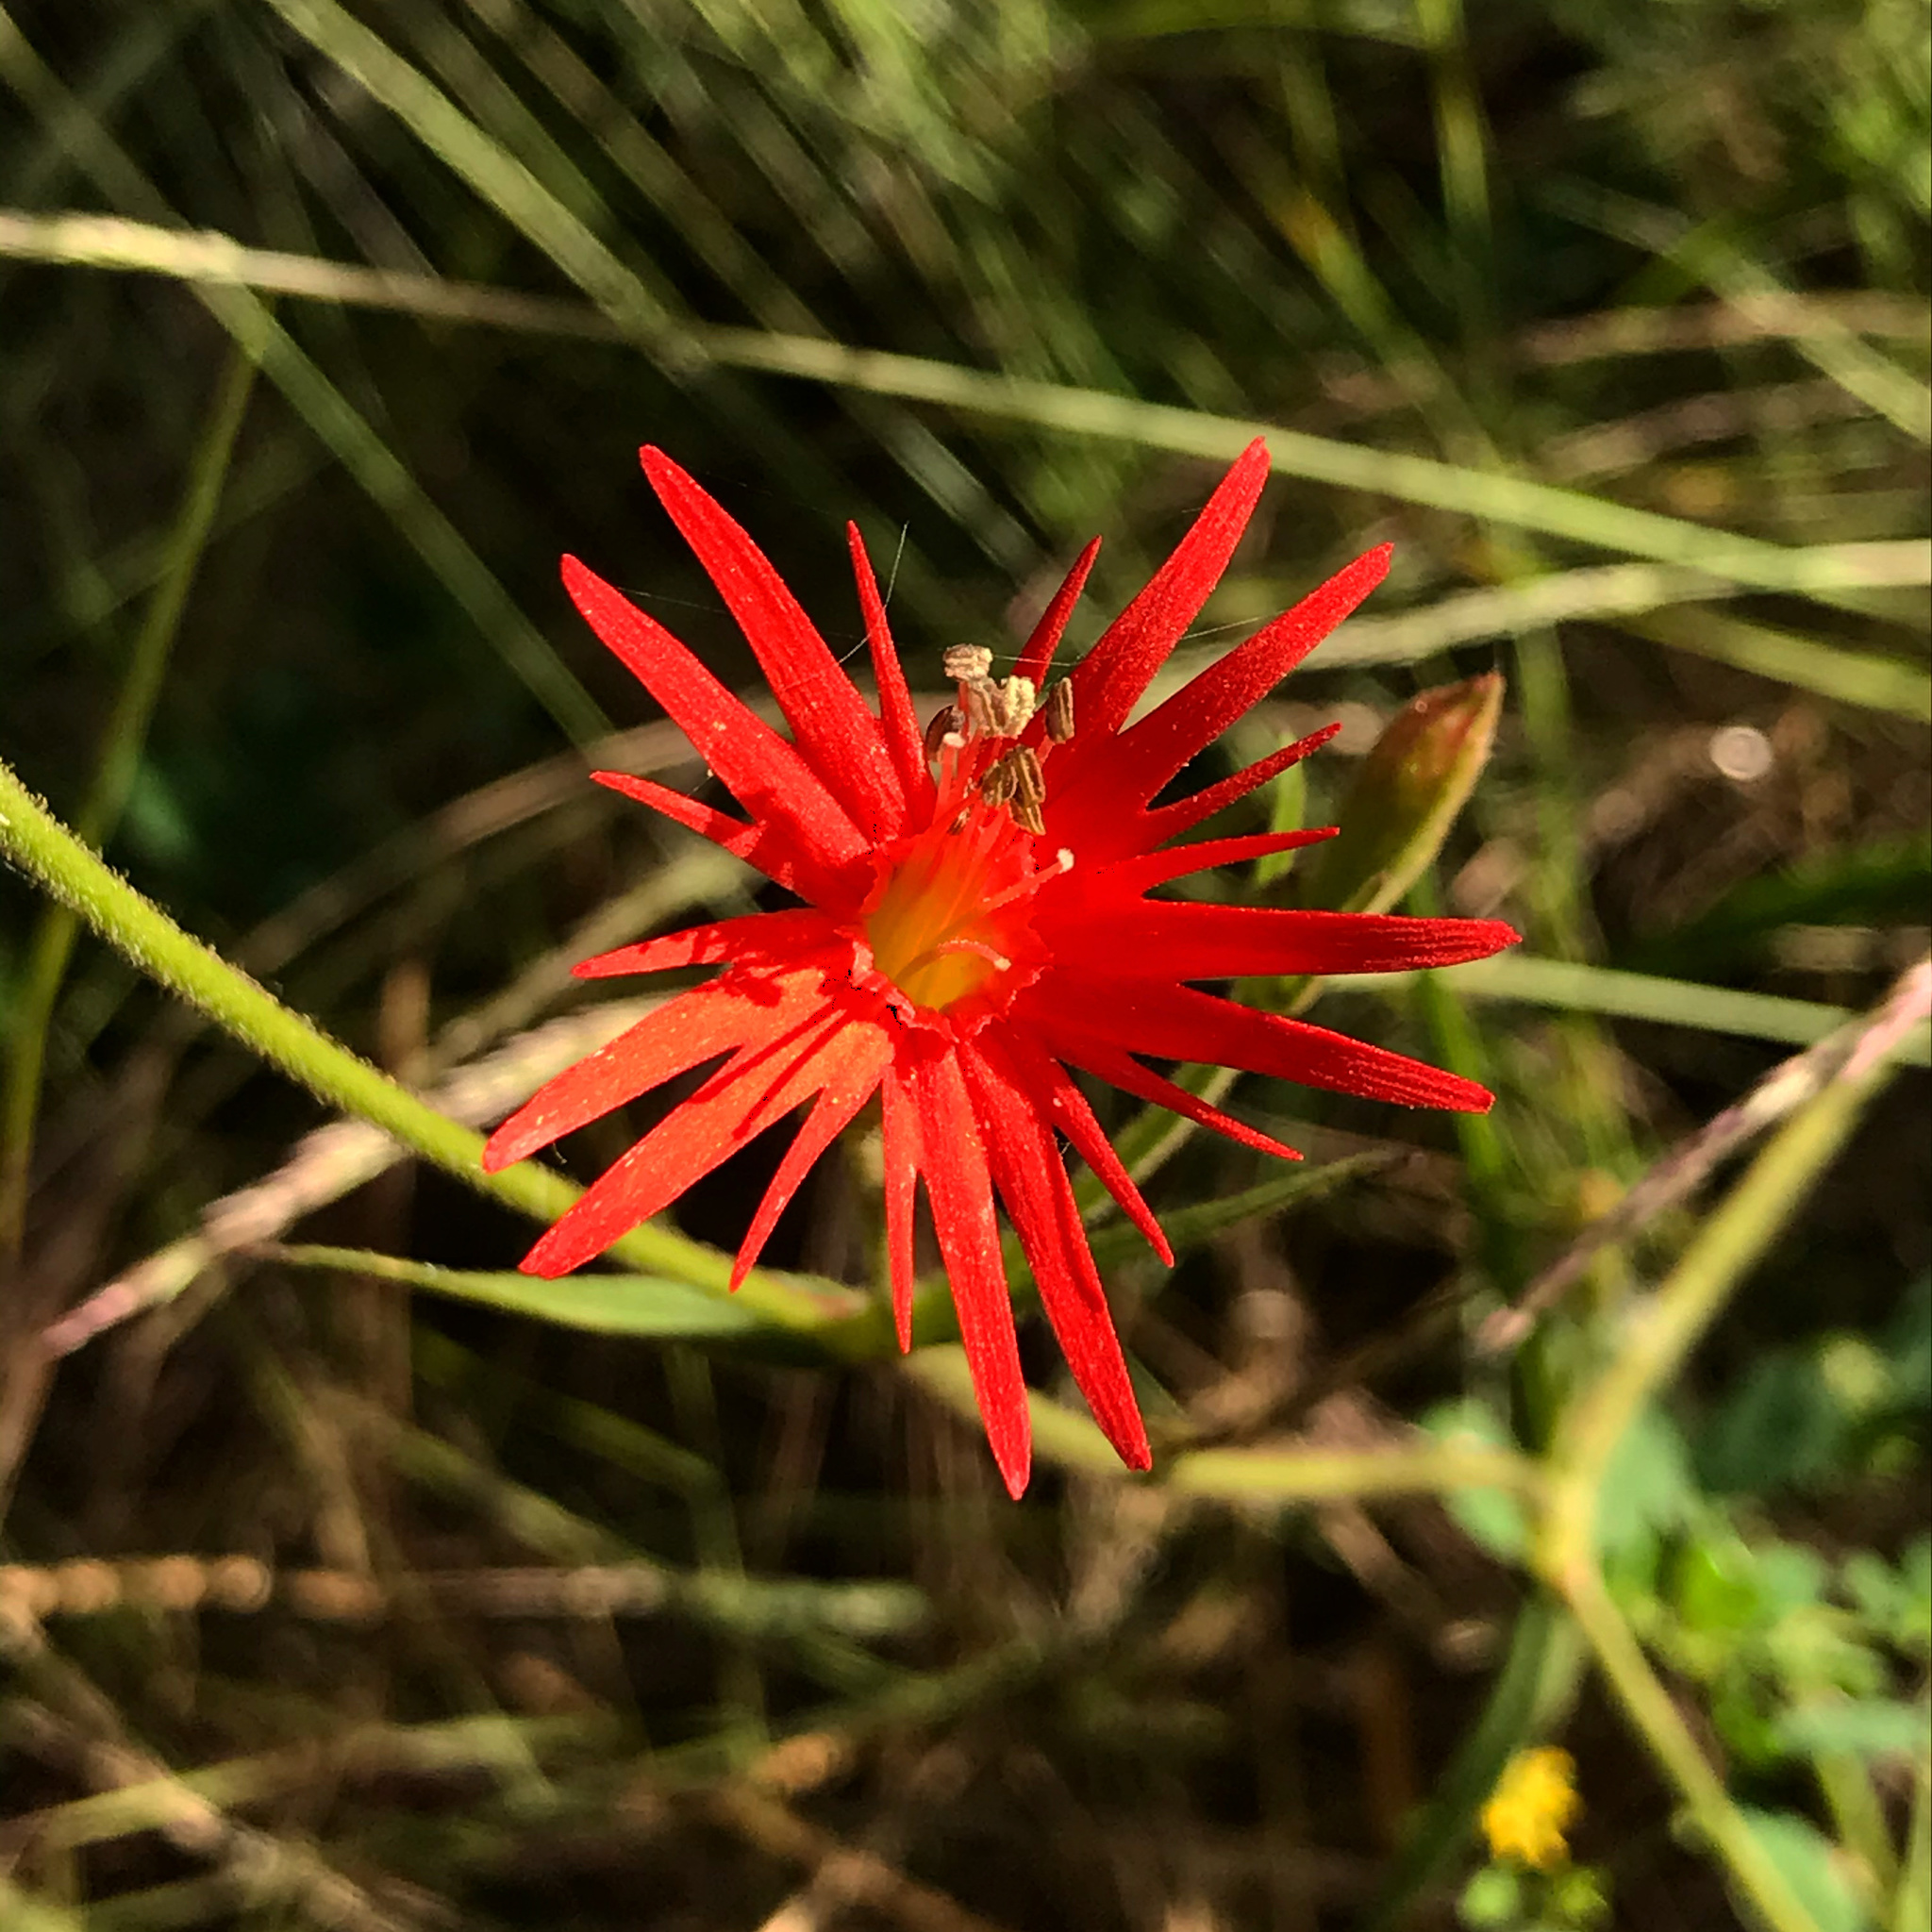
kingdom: Plantae
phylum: Tracheophyta
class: Magnoliopsida
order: Caryophyllales
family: Caryophyllaceae
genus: Silene
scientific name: Silene laciniata
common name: Indian-pink
